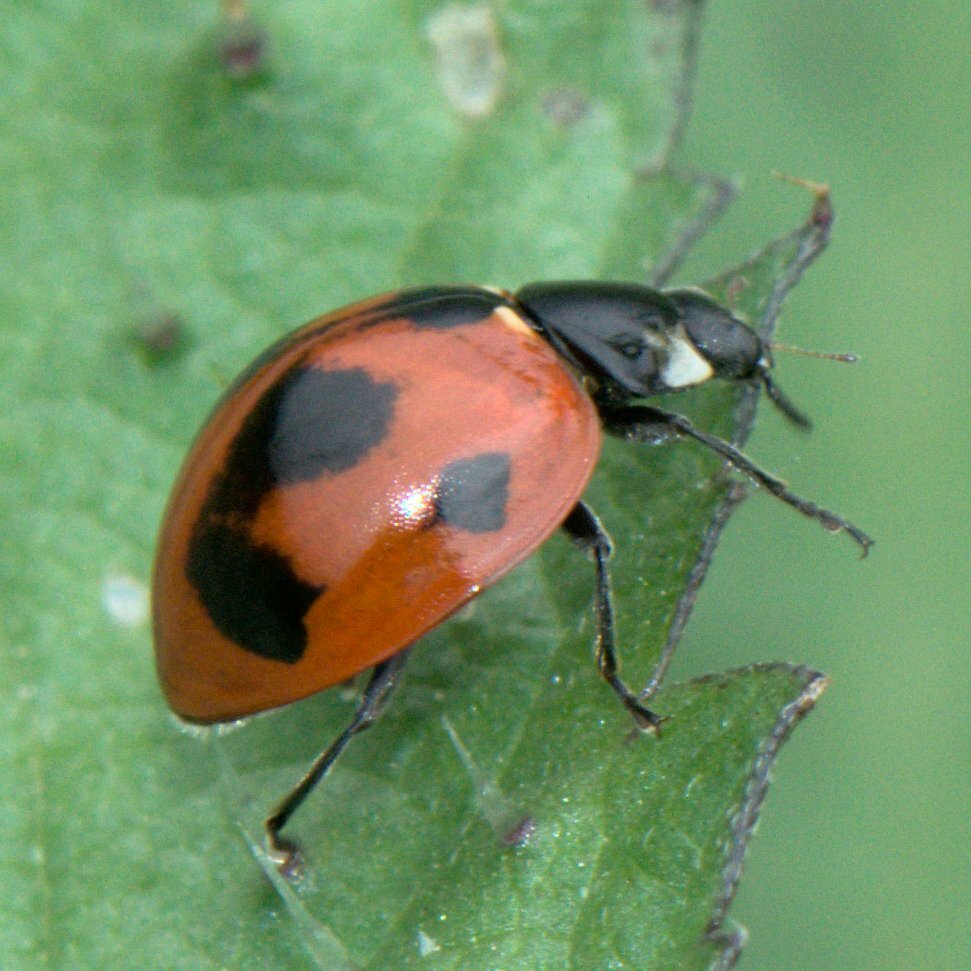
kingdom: Animalia
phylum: Arthropoda
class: Insecta
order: Coleoptera
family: Coccinellidae
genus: Coccinella
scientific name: Coccinella septempunctata
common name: Sevenspotted lady beetle
